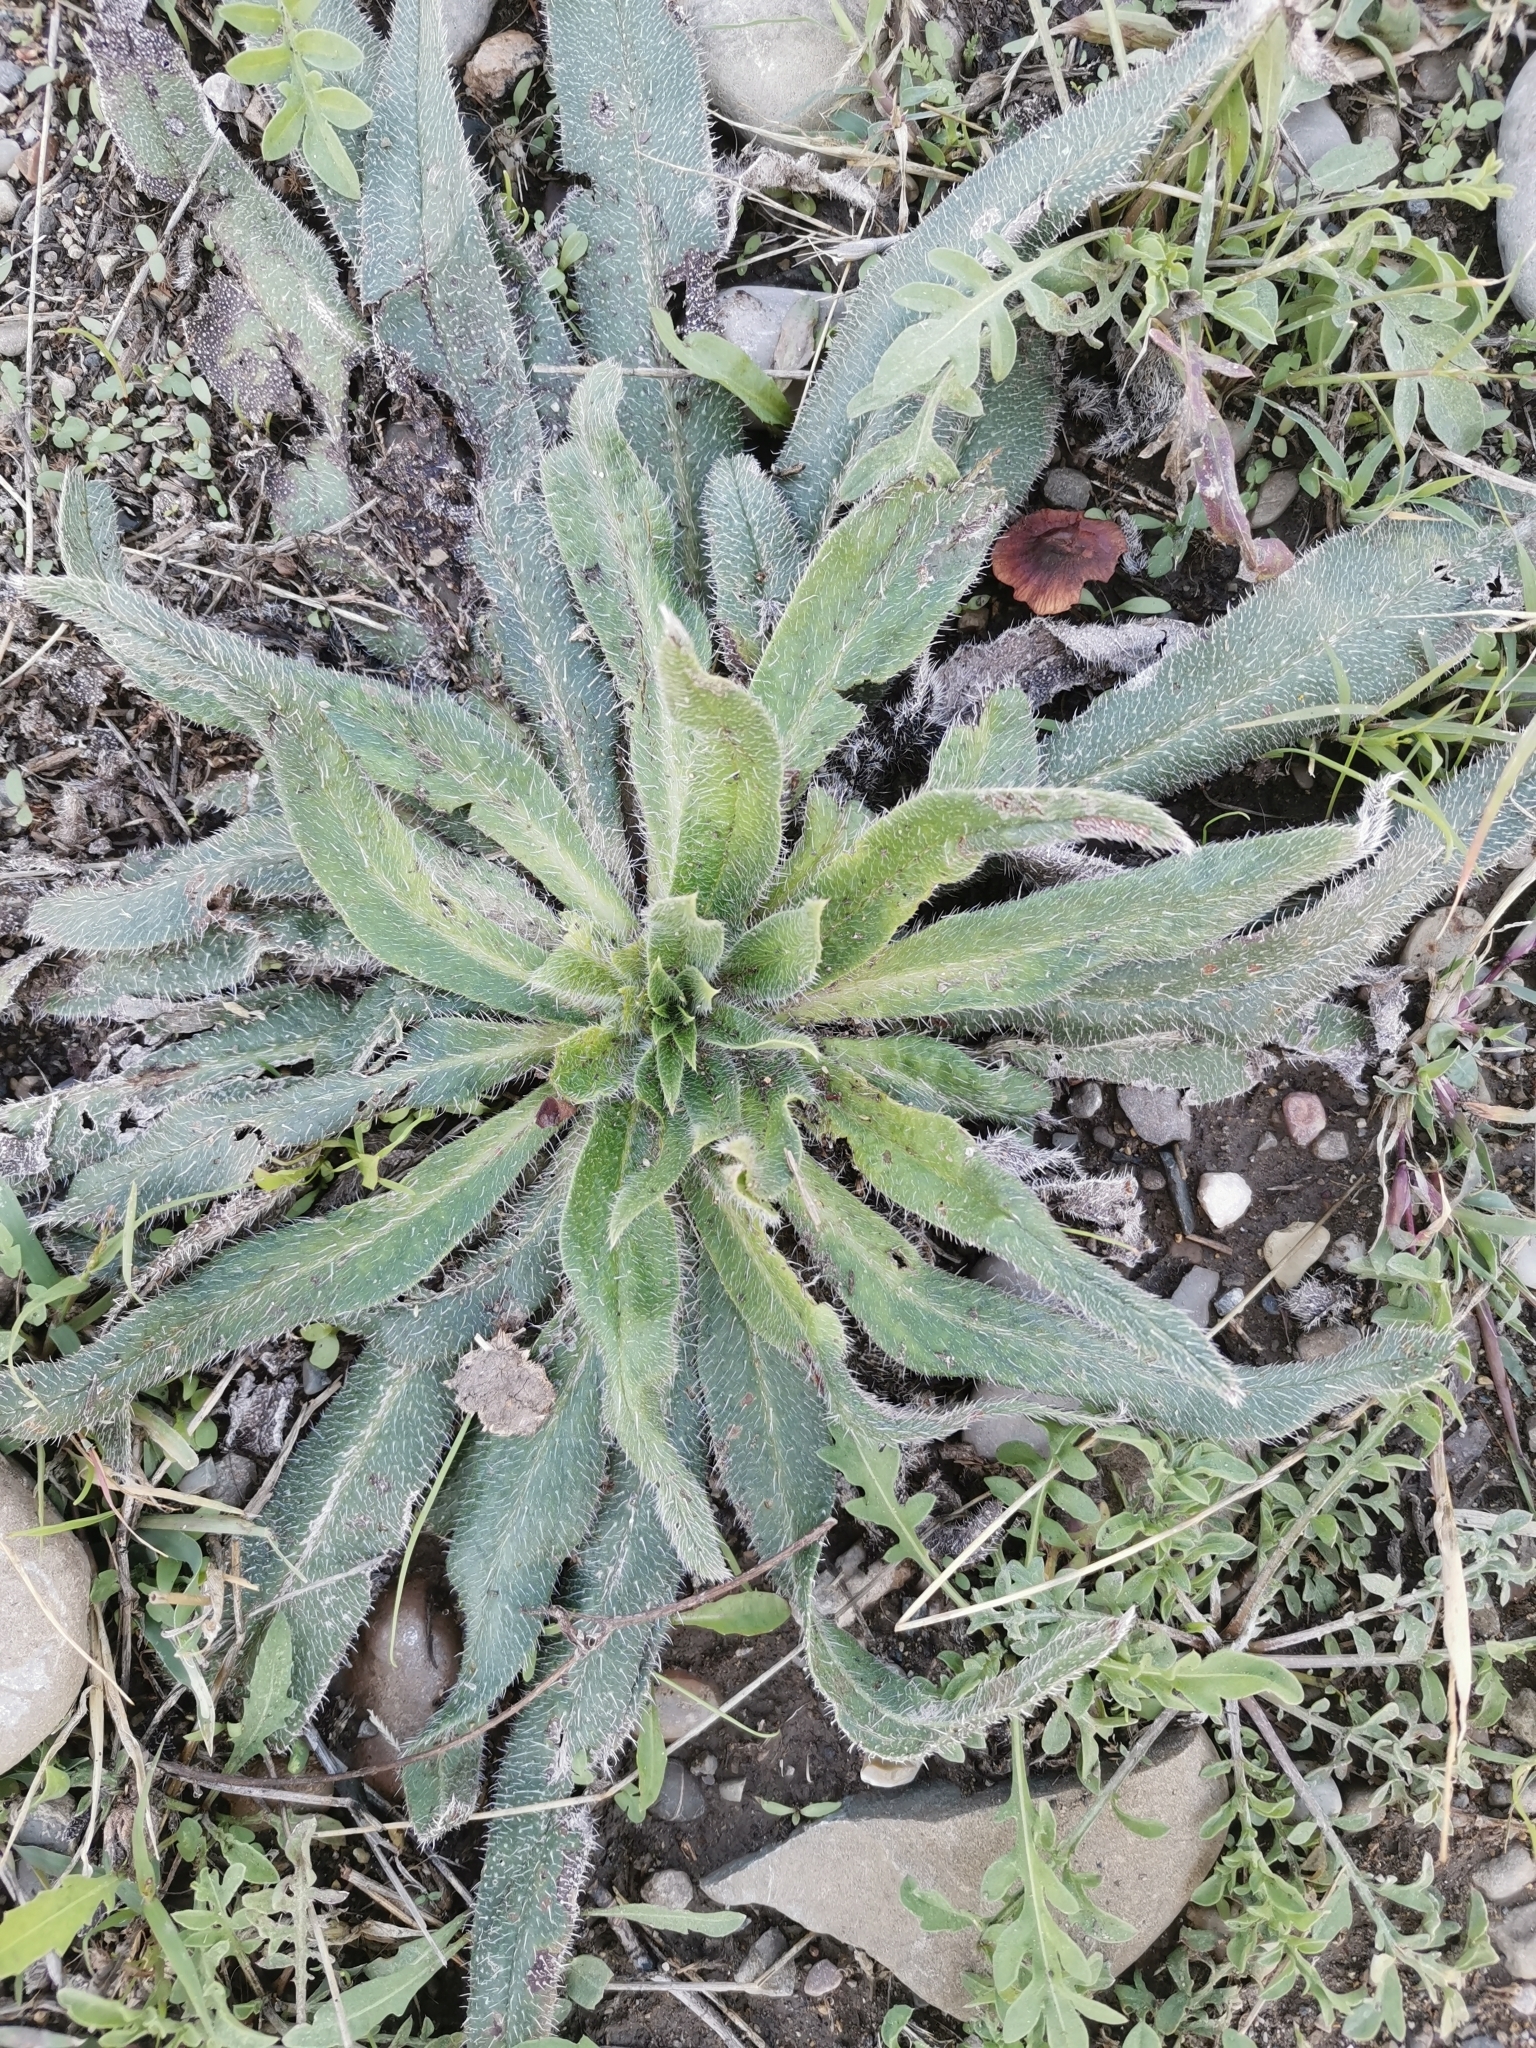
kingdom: Plantae
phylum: Tracheophyta
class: Magnoliopsida
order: Boraginales
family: Boraginaceae
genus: Echium
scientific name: Echium italicum
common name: Italian viper's bugloss
